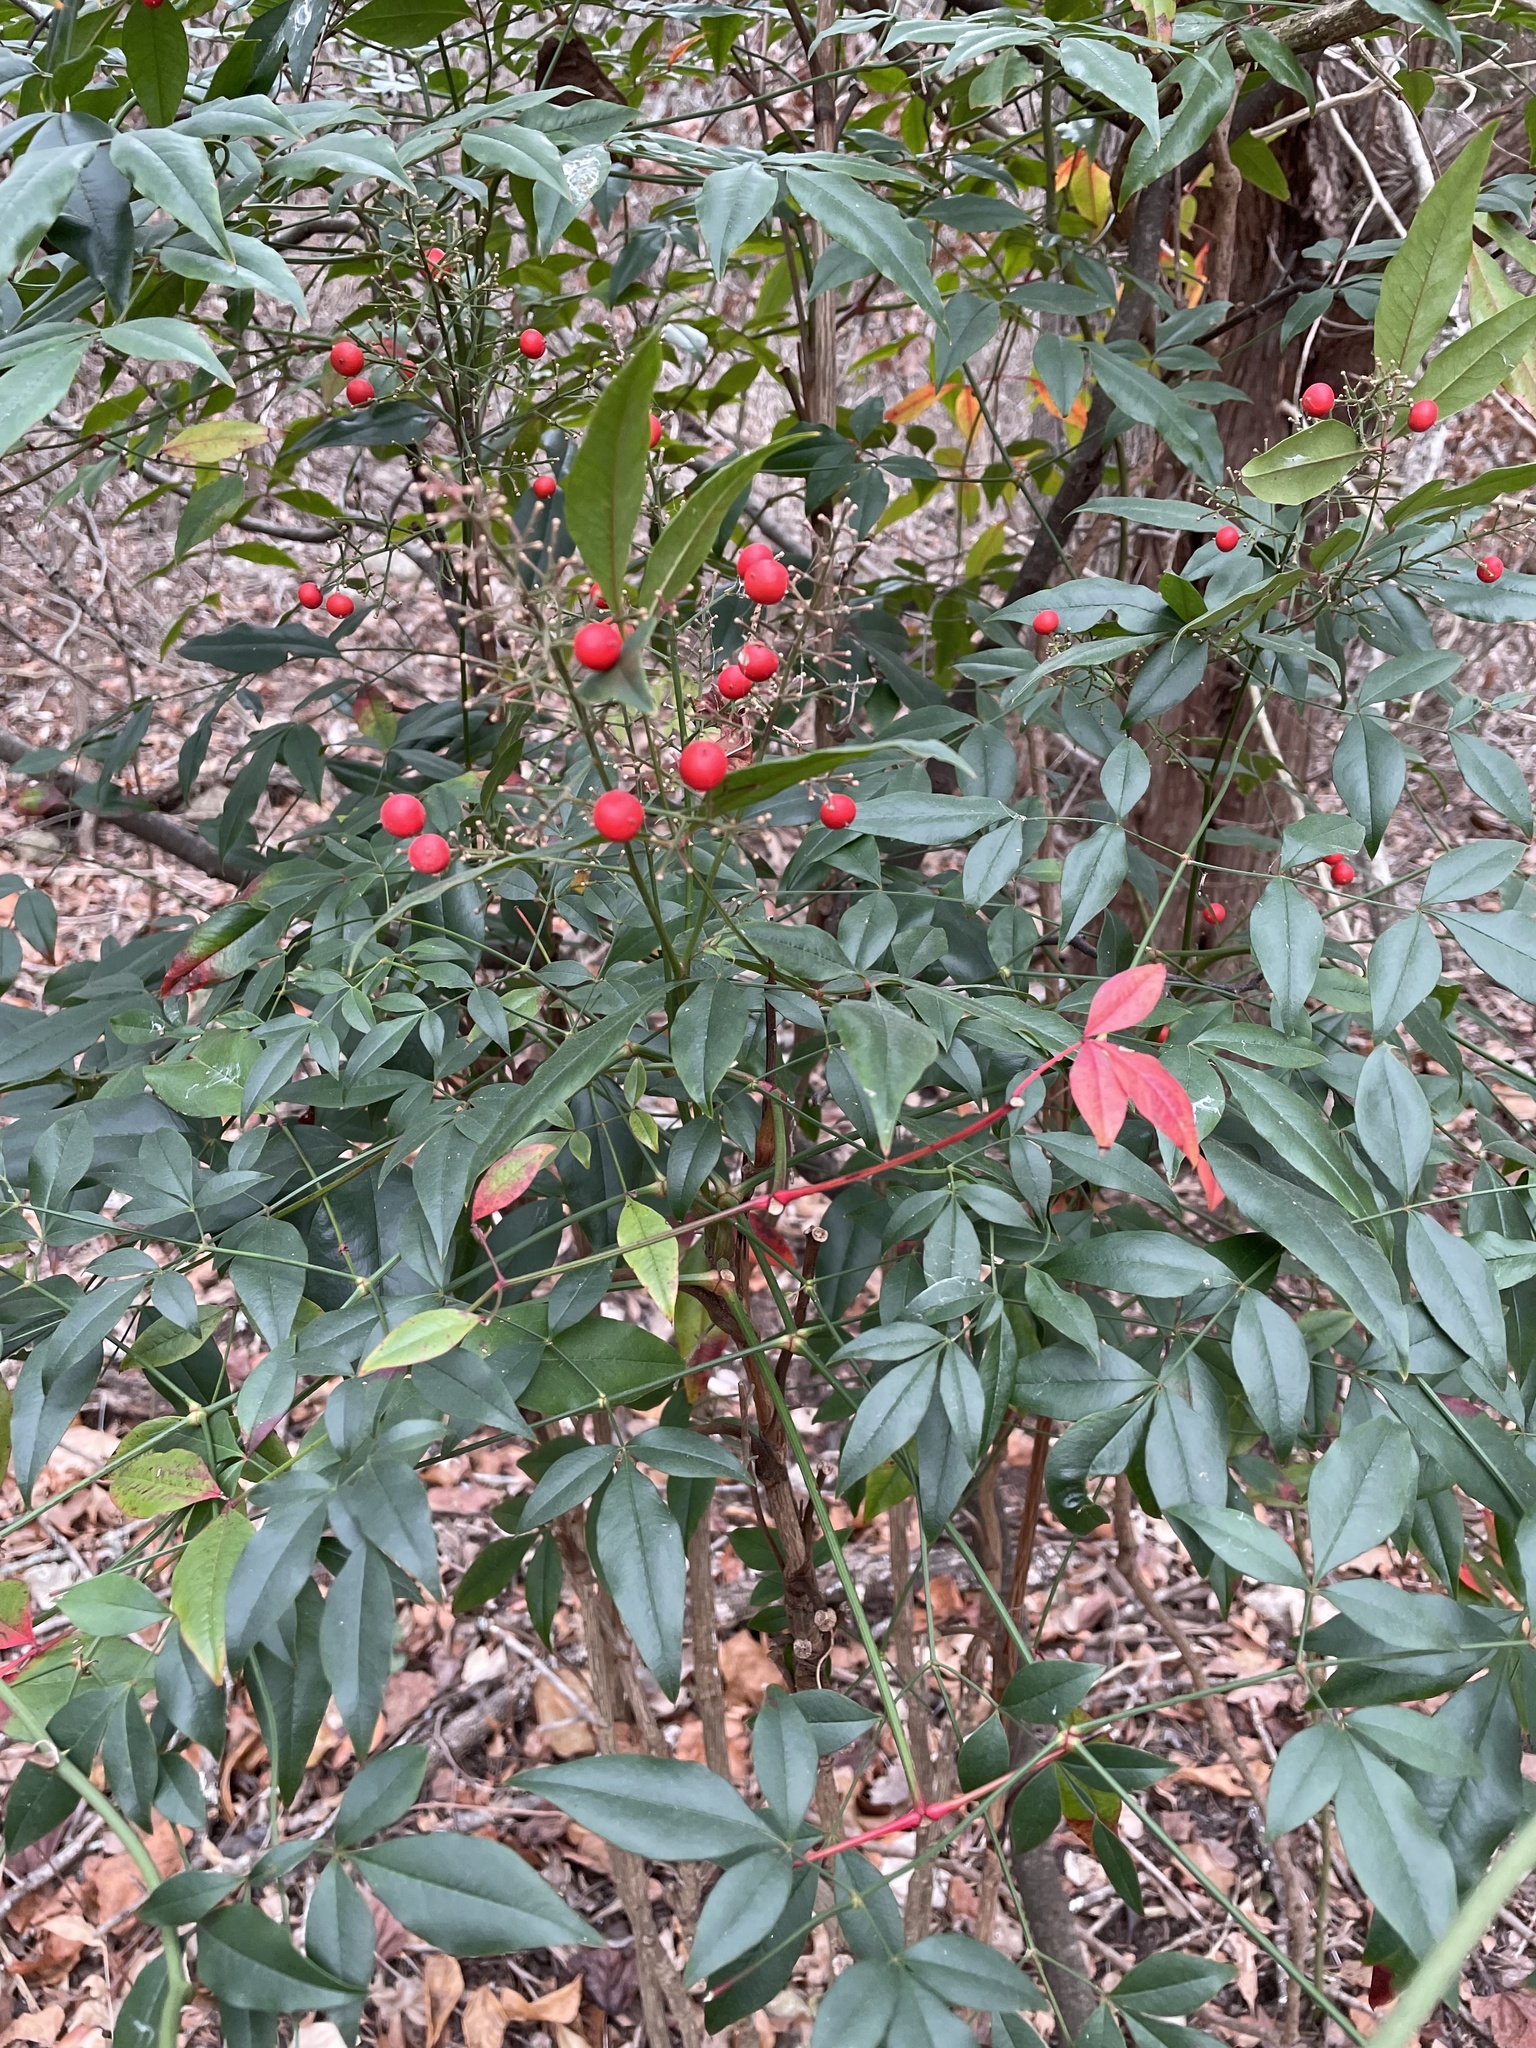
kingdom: Plantae
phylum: Tracheophyta
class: Magnoliopsida
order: Ranunculales
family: Berberidaceae
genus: Nandina
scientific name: Nandina domestica
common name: Sacred bamboo
